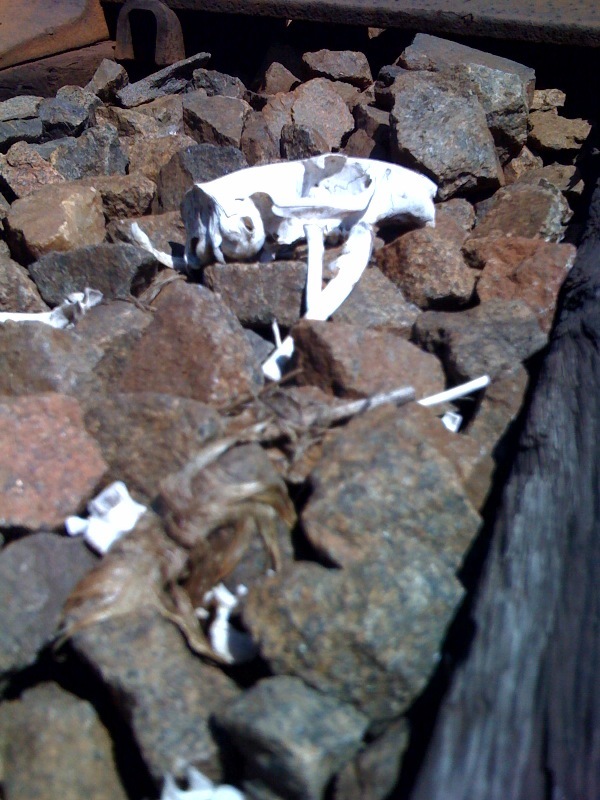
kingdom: Animalia
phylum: Chordata
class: Mammalia
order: Rodentia
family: Sciuridae
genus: Marmota
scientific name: Marmota monax
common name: Groundhog
